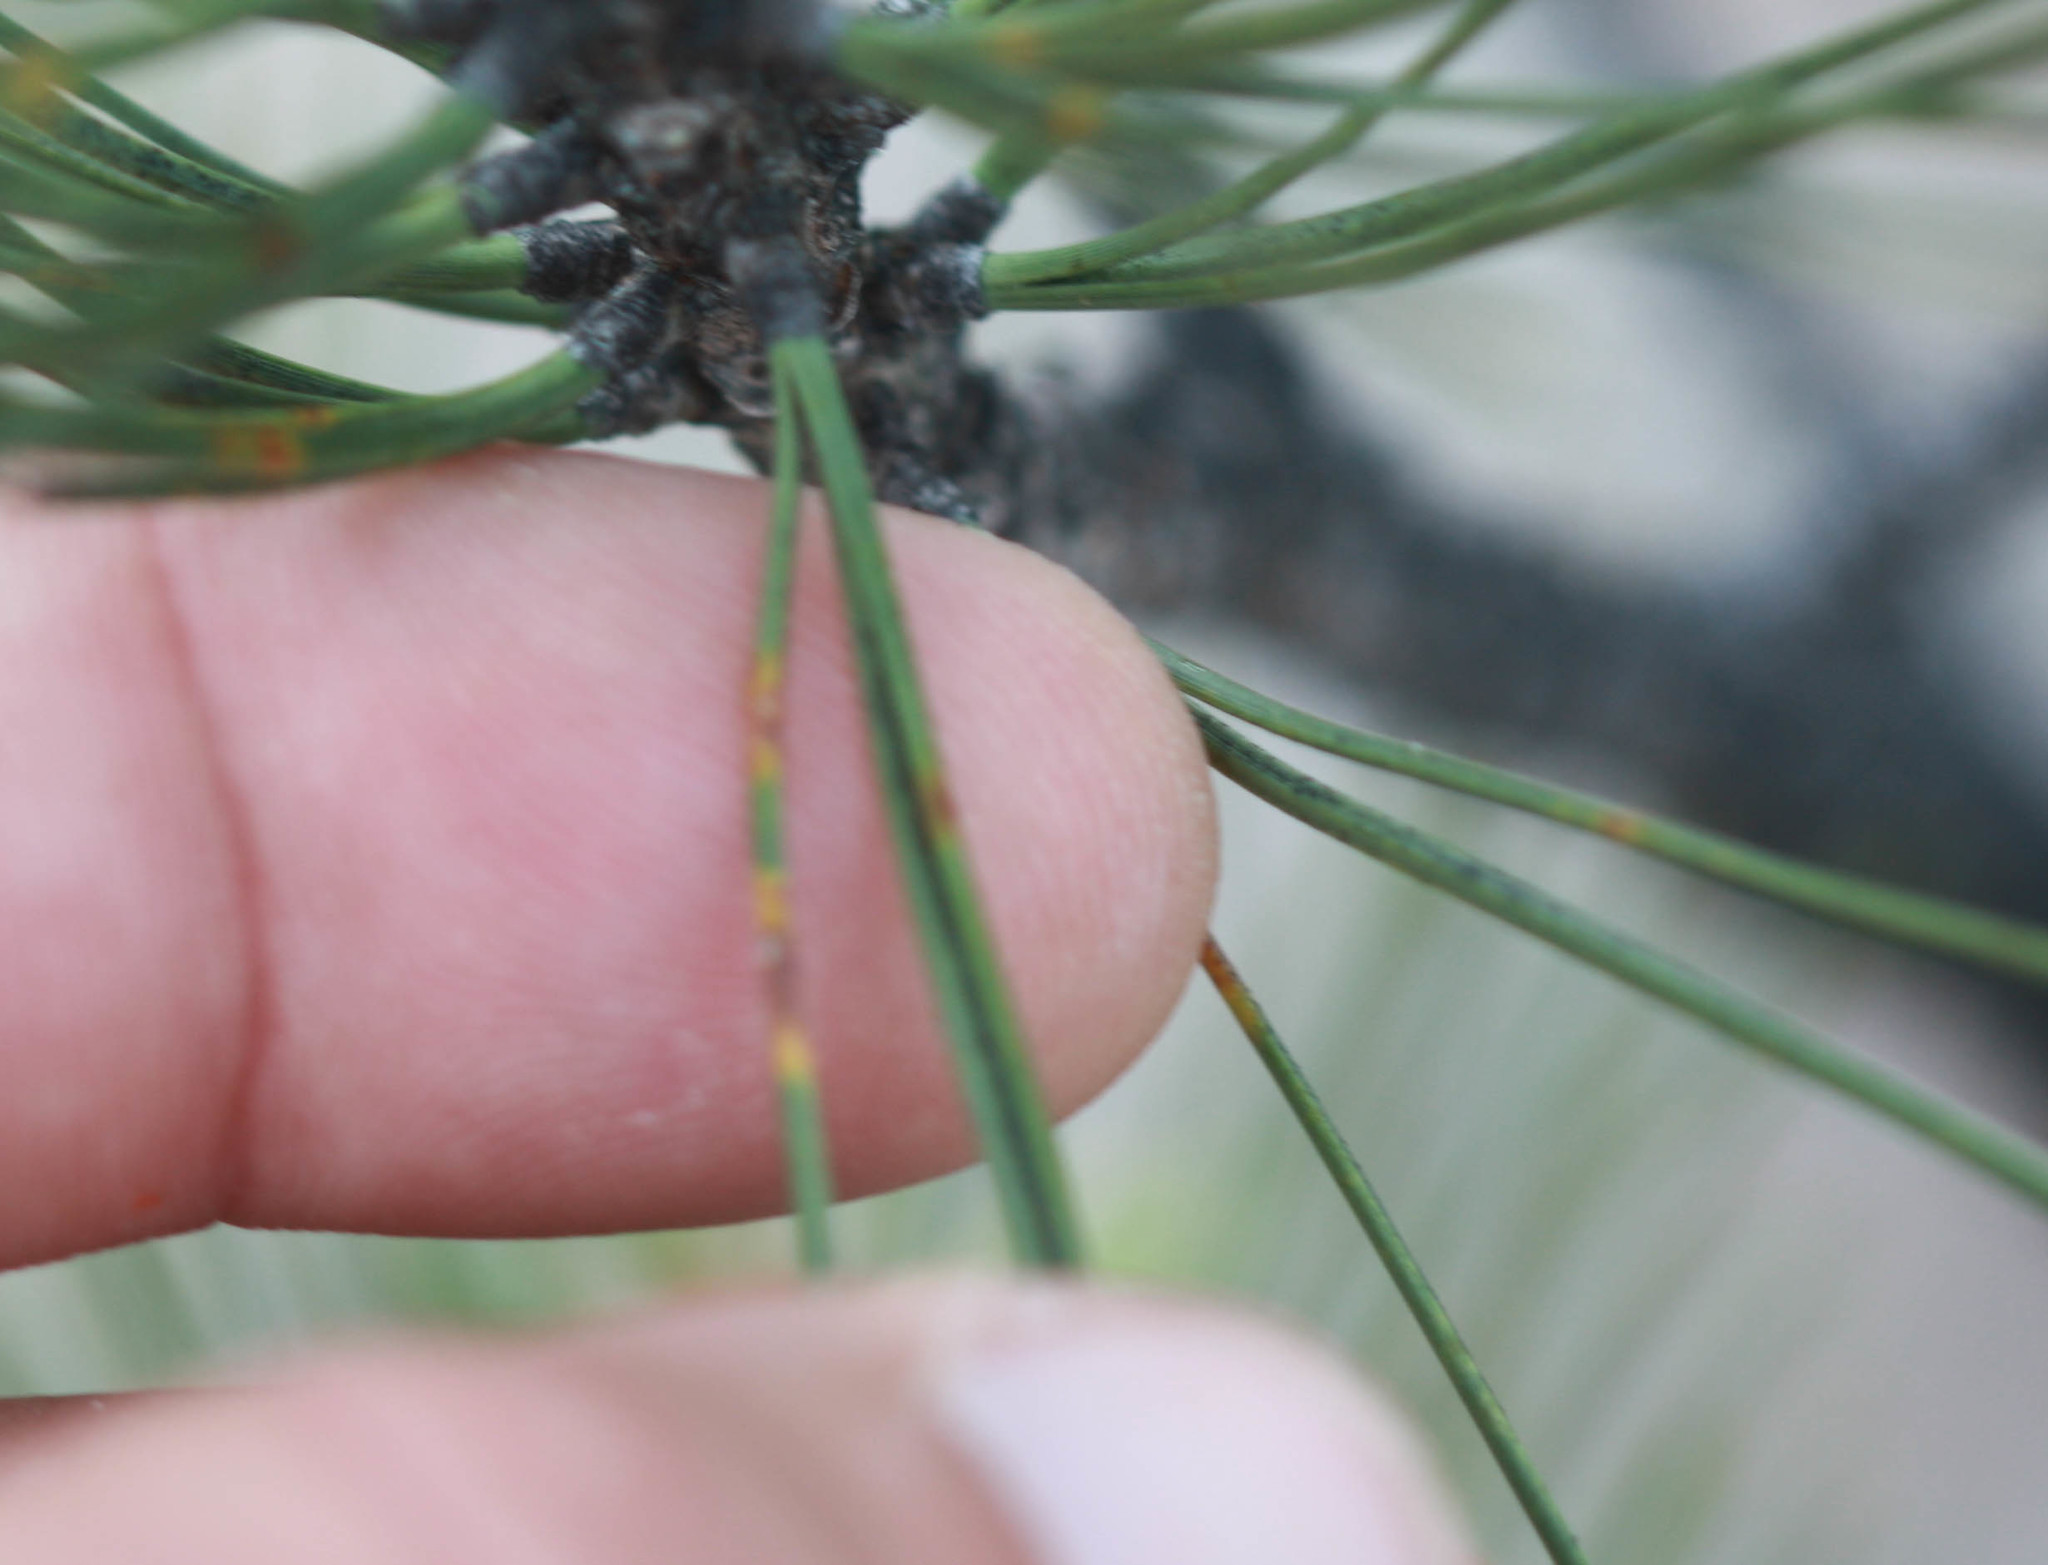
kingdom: Plantae
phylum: Tracheophyta
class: Pinopsida
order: Pinales
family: Pinaceae
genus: Pinus
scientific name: Pinus attenuata
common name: Knobcone pine
